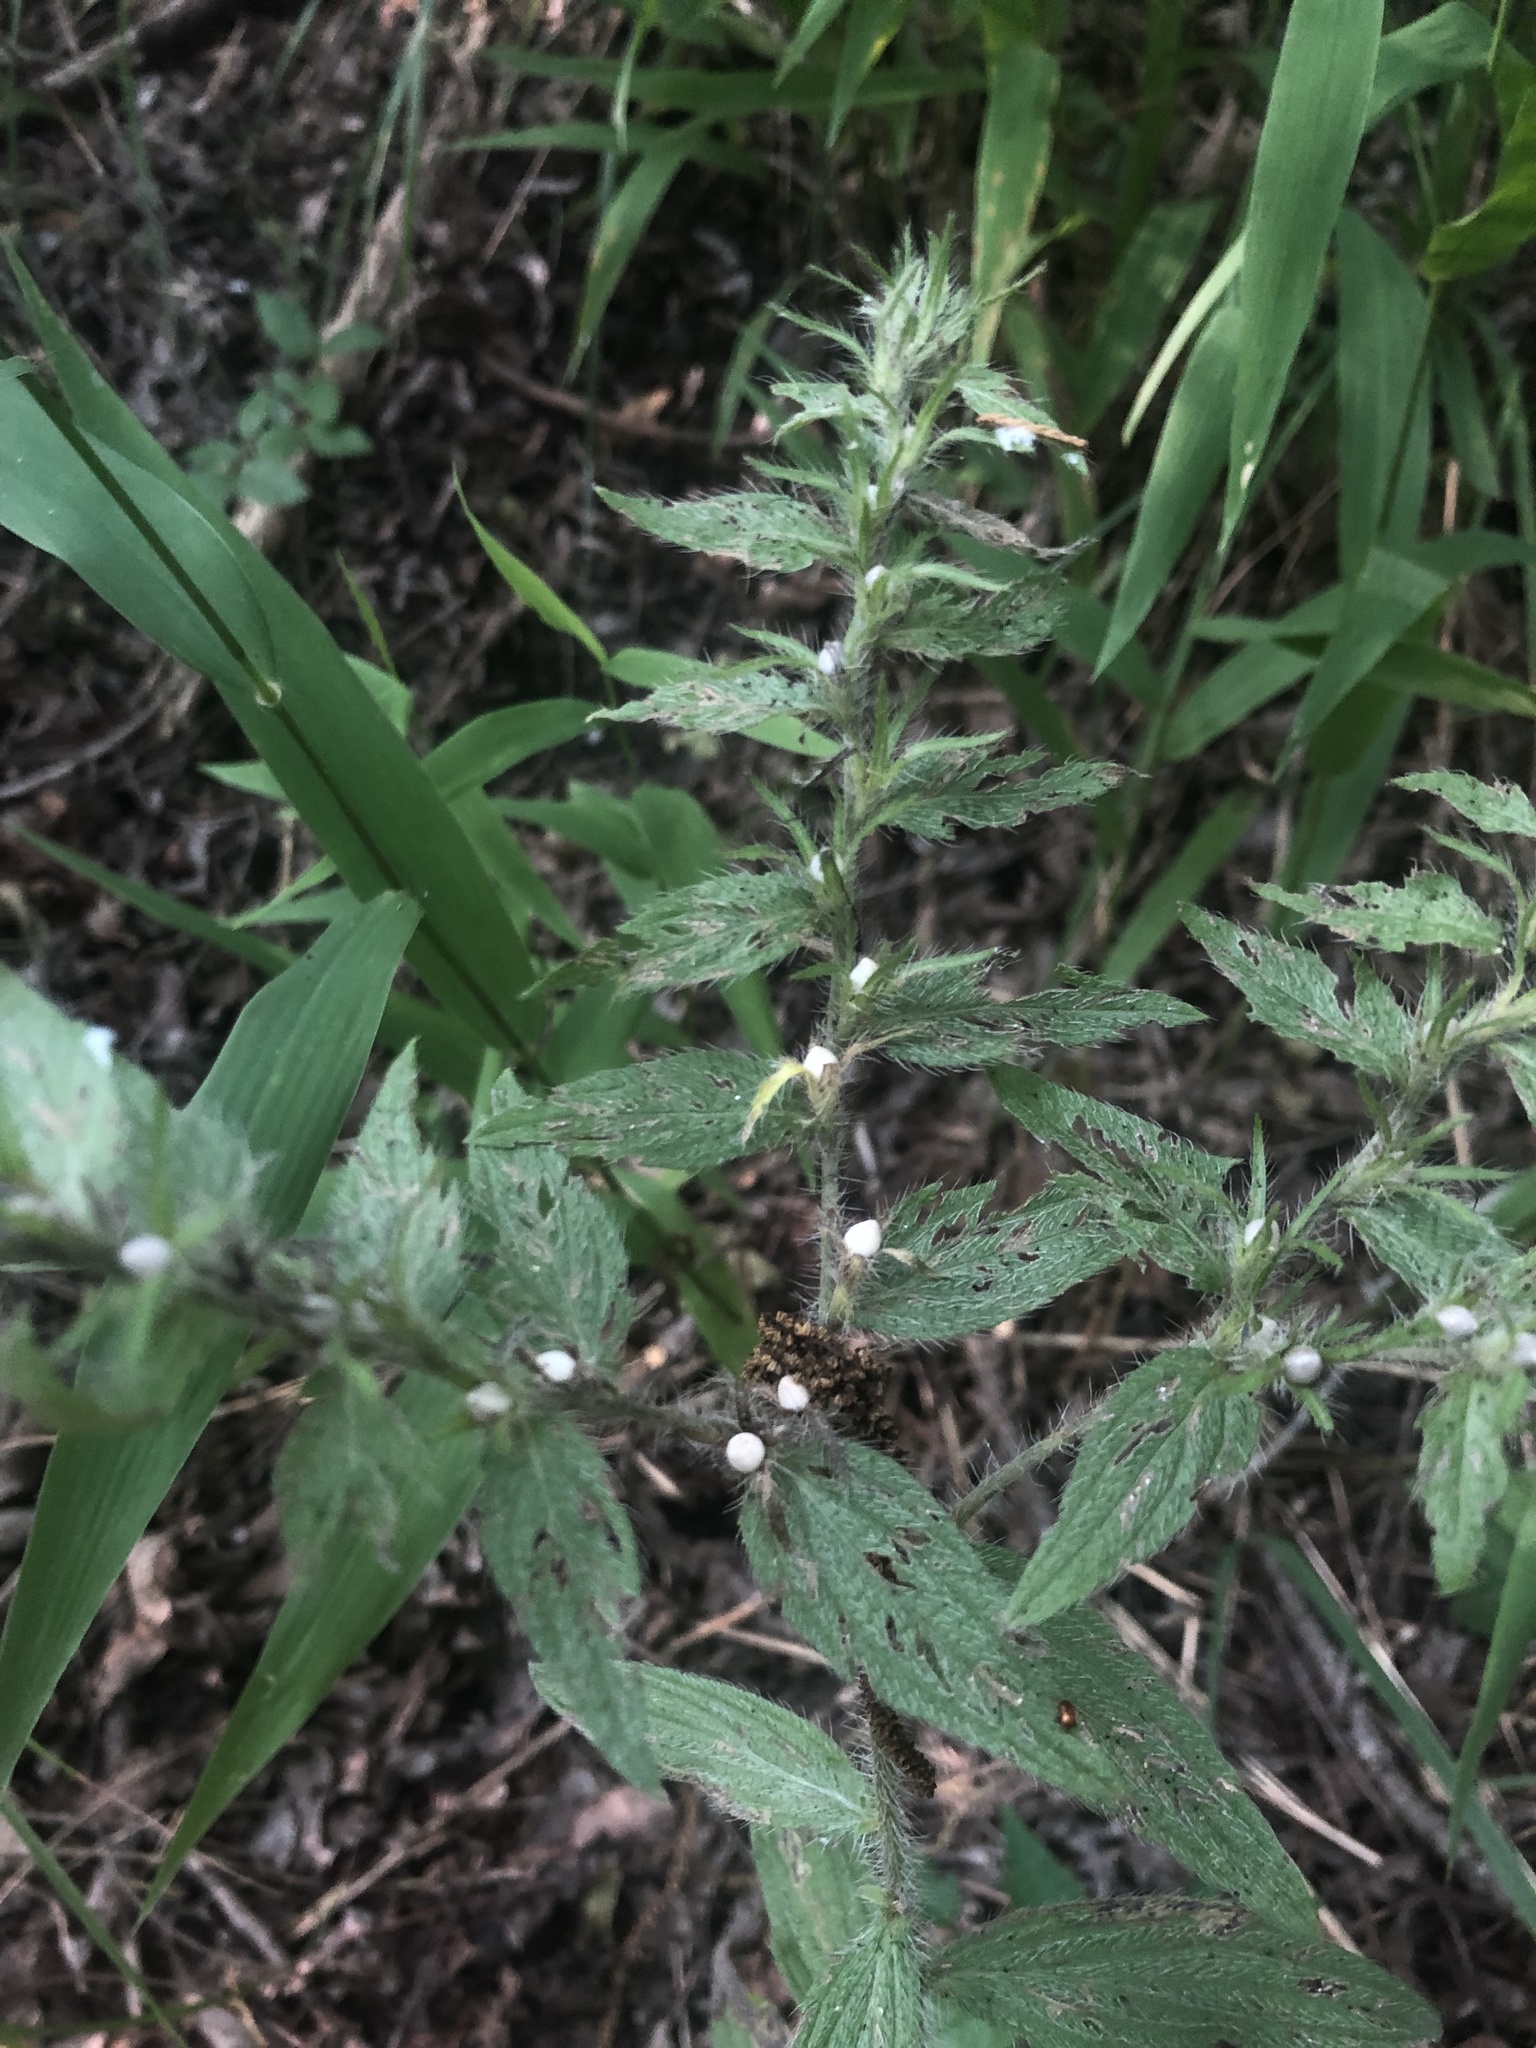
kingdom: Plantae
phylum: Tracheophyta
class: Magnoliopsida
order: Boraginales
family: Boraginaceae
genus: Lithospermum
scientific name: Lithospermum caroliniense
